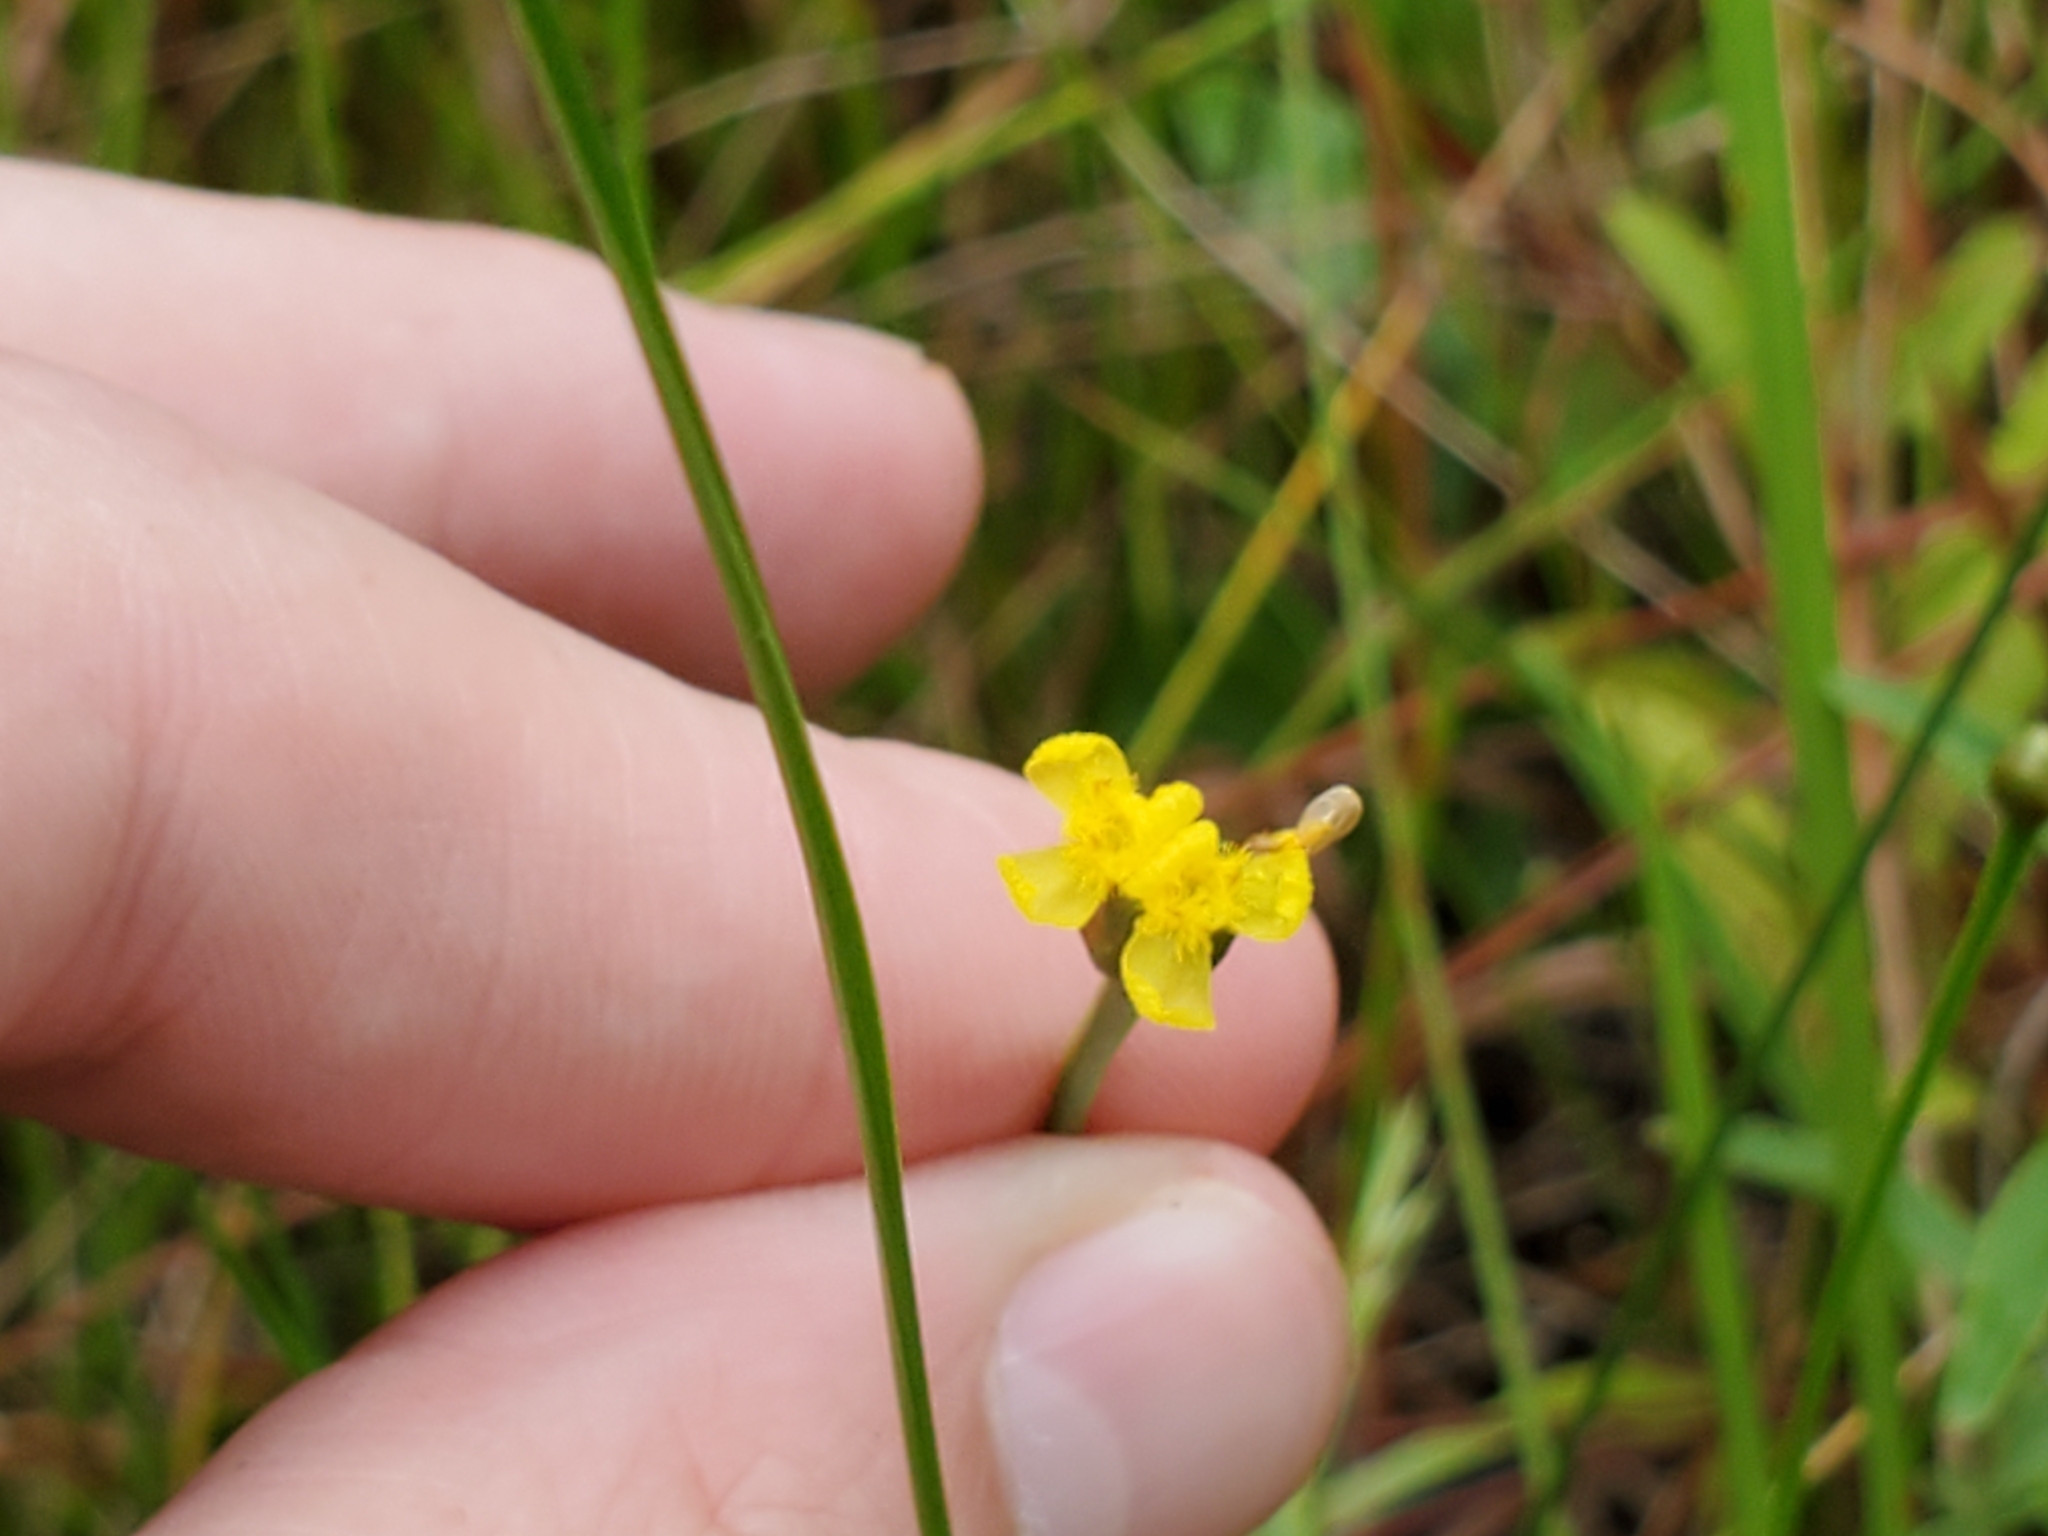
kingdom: Plantae
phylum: Tracheophyta
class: Liliopsida
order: Poales
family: Xyridaceae
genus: Xyris
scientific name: Xyris difformis
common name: Bog yellow-eyed-grass
